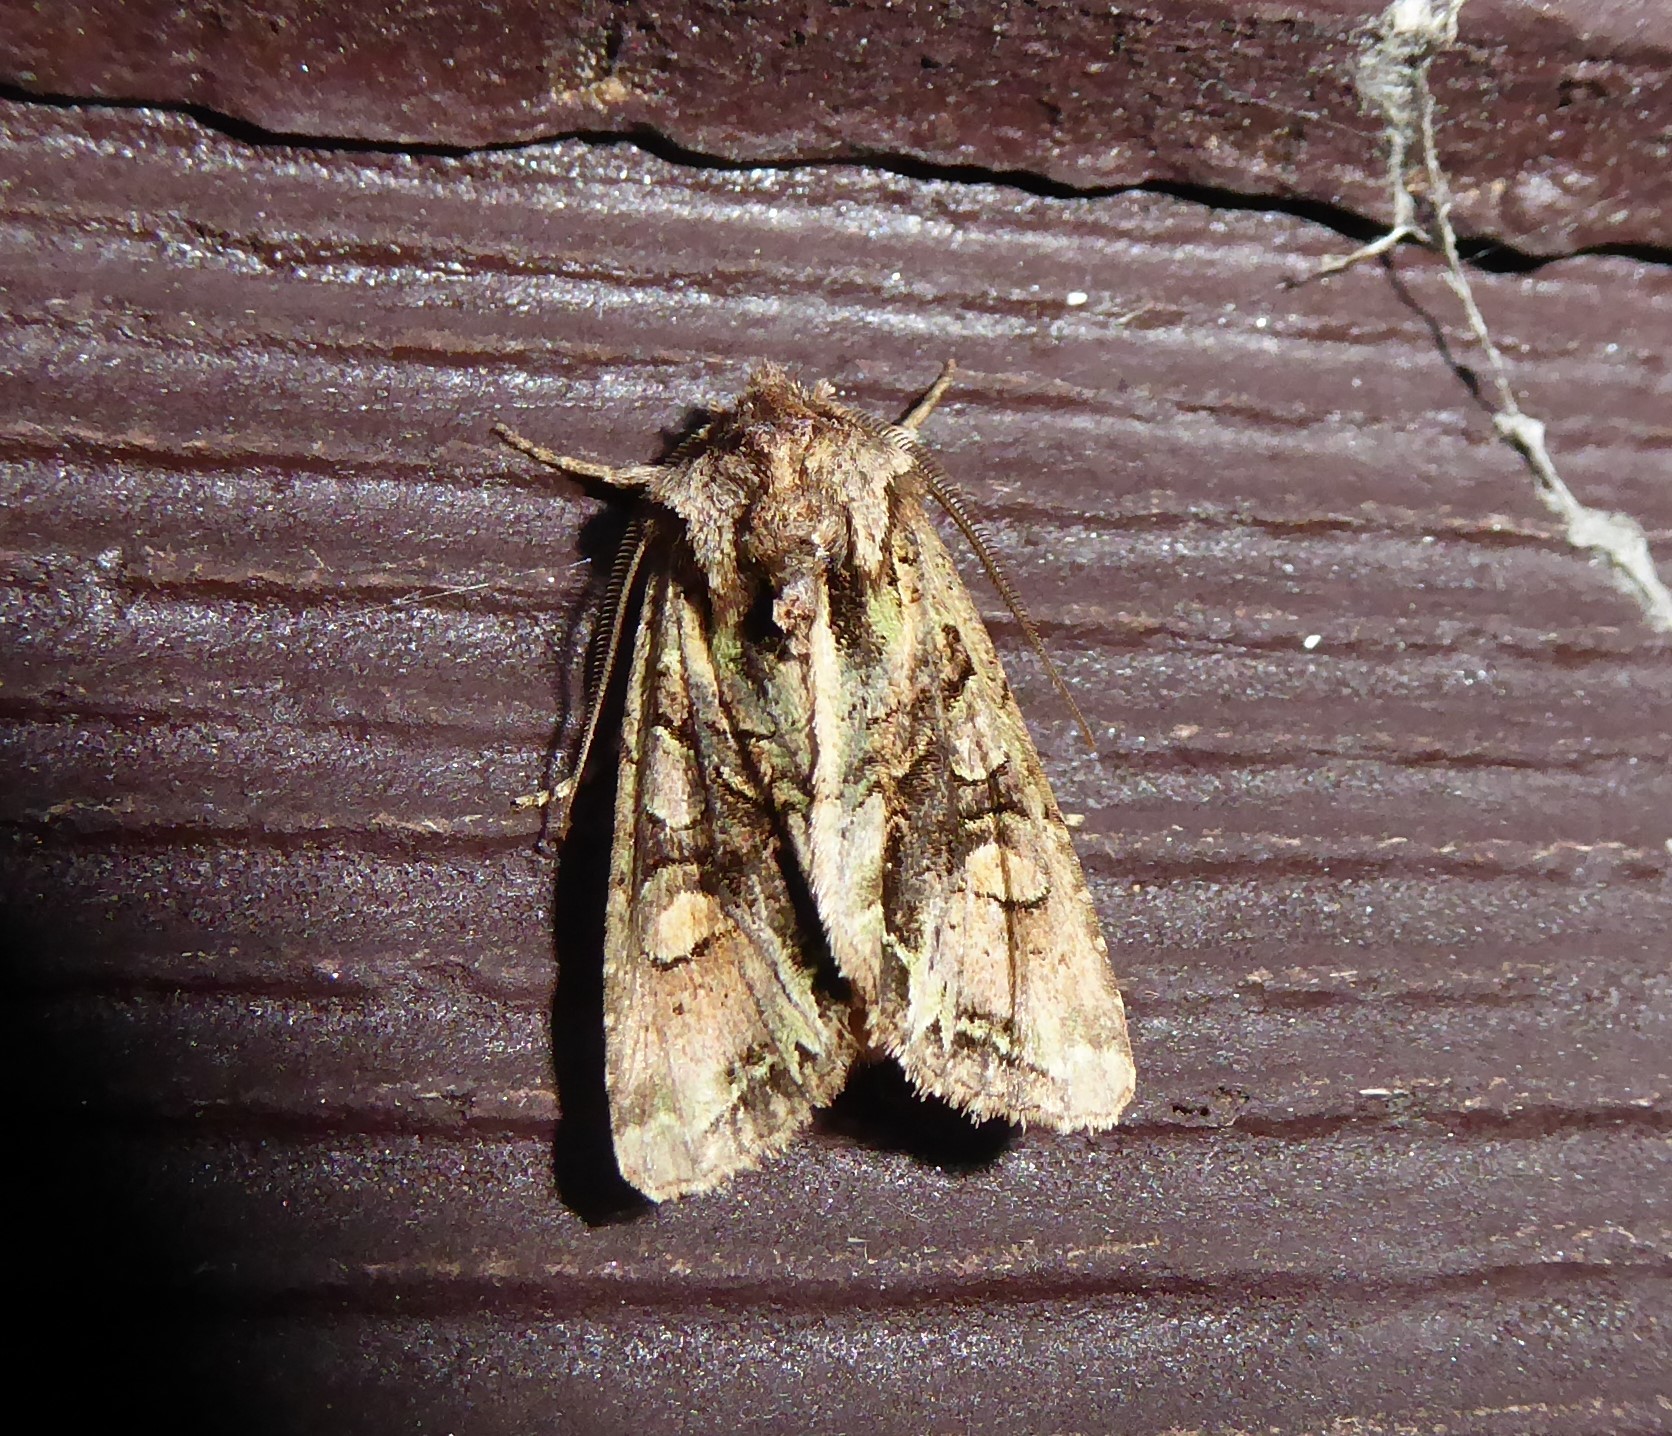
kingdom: Animalia
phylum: Arthropoda
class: Insecta
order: Lepidoptera
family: Noctuidae
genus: Ichneutica
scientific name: Ichneutica insignis
